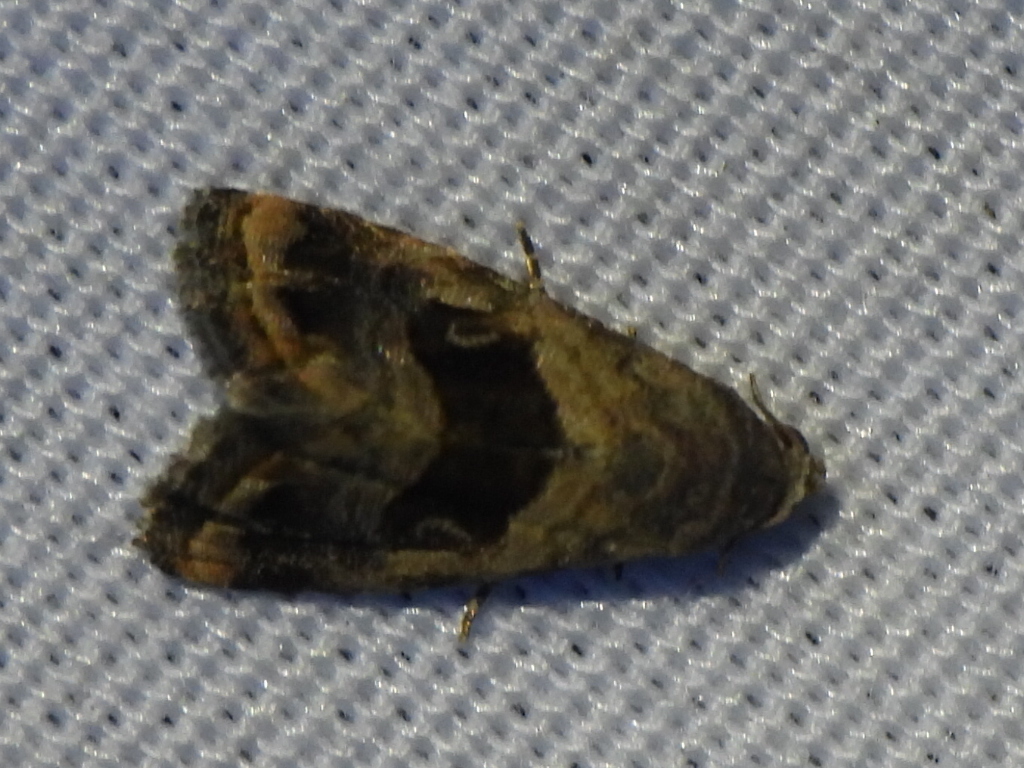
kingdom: Animalia
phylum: Arthropoda
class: Insecta
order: Lepidoptera
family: Noctuidae
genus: Tripudia
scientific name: Tripudia quadrifera
